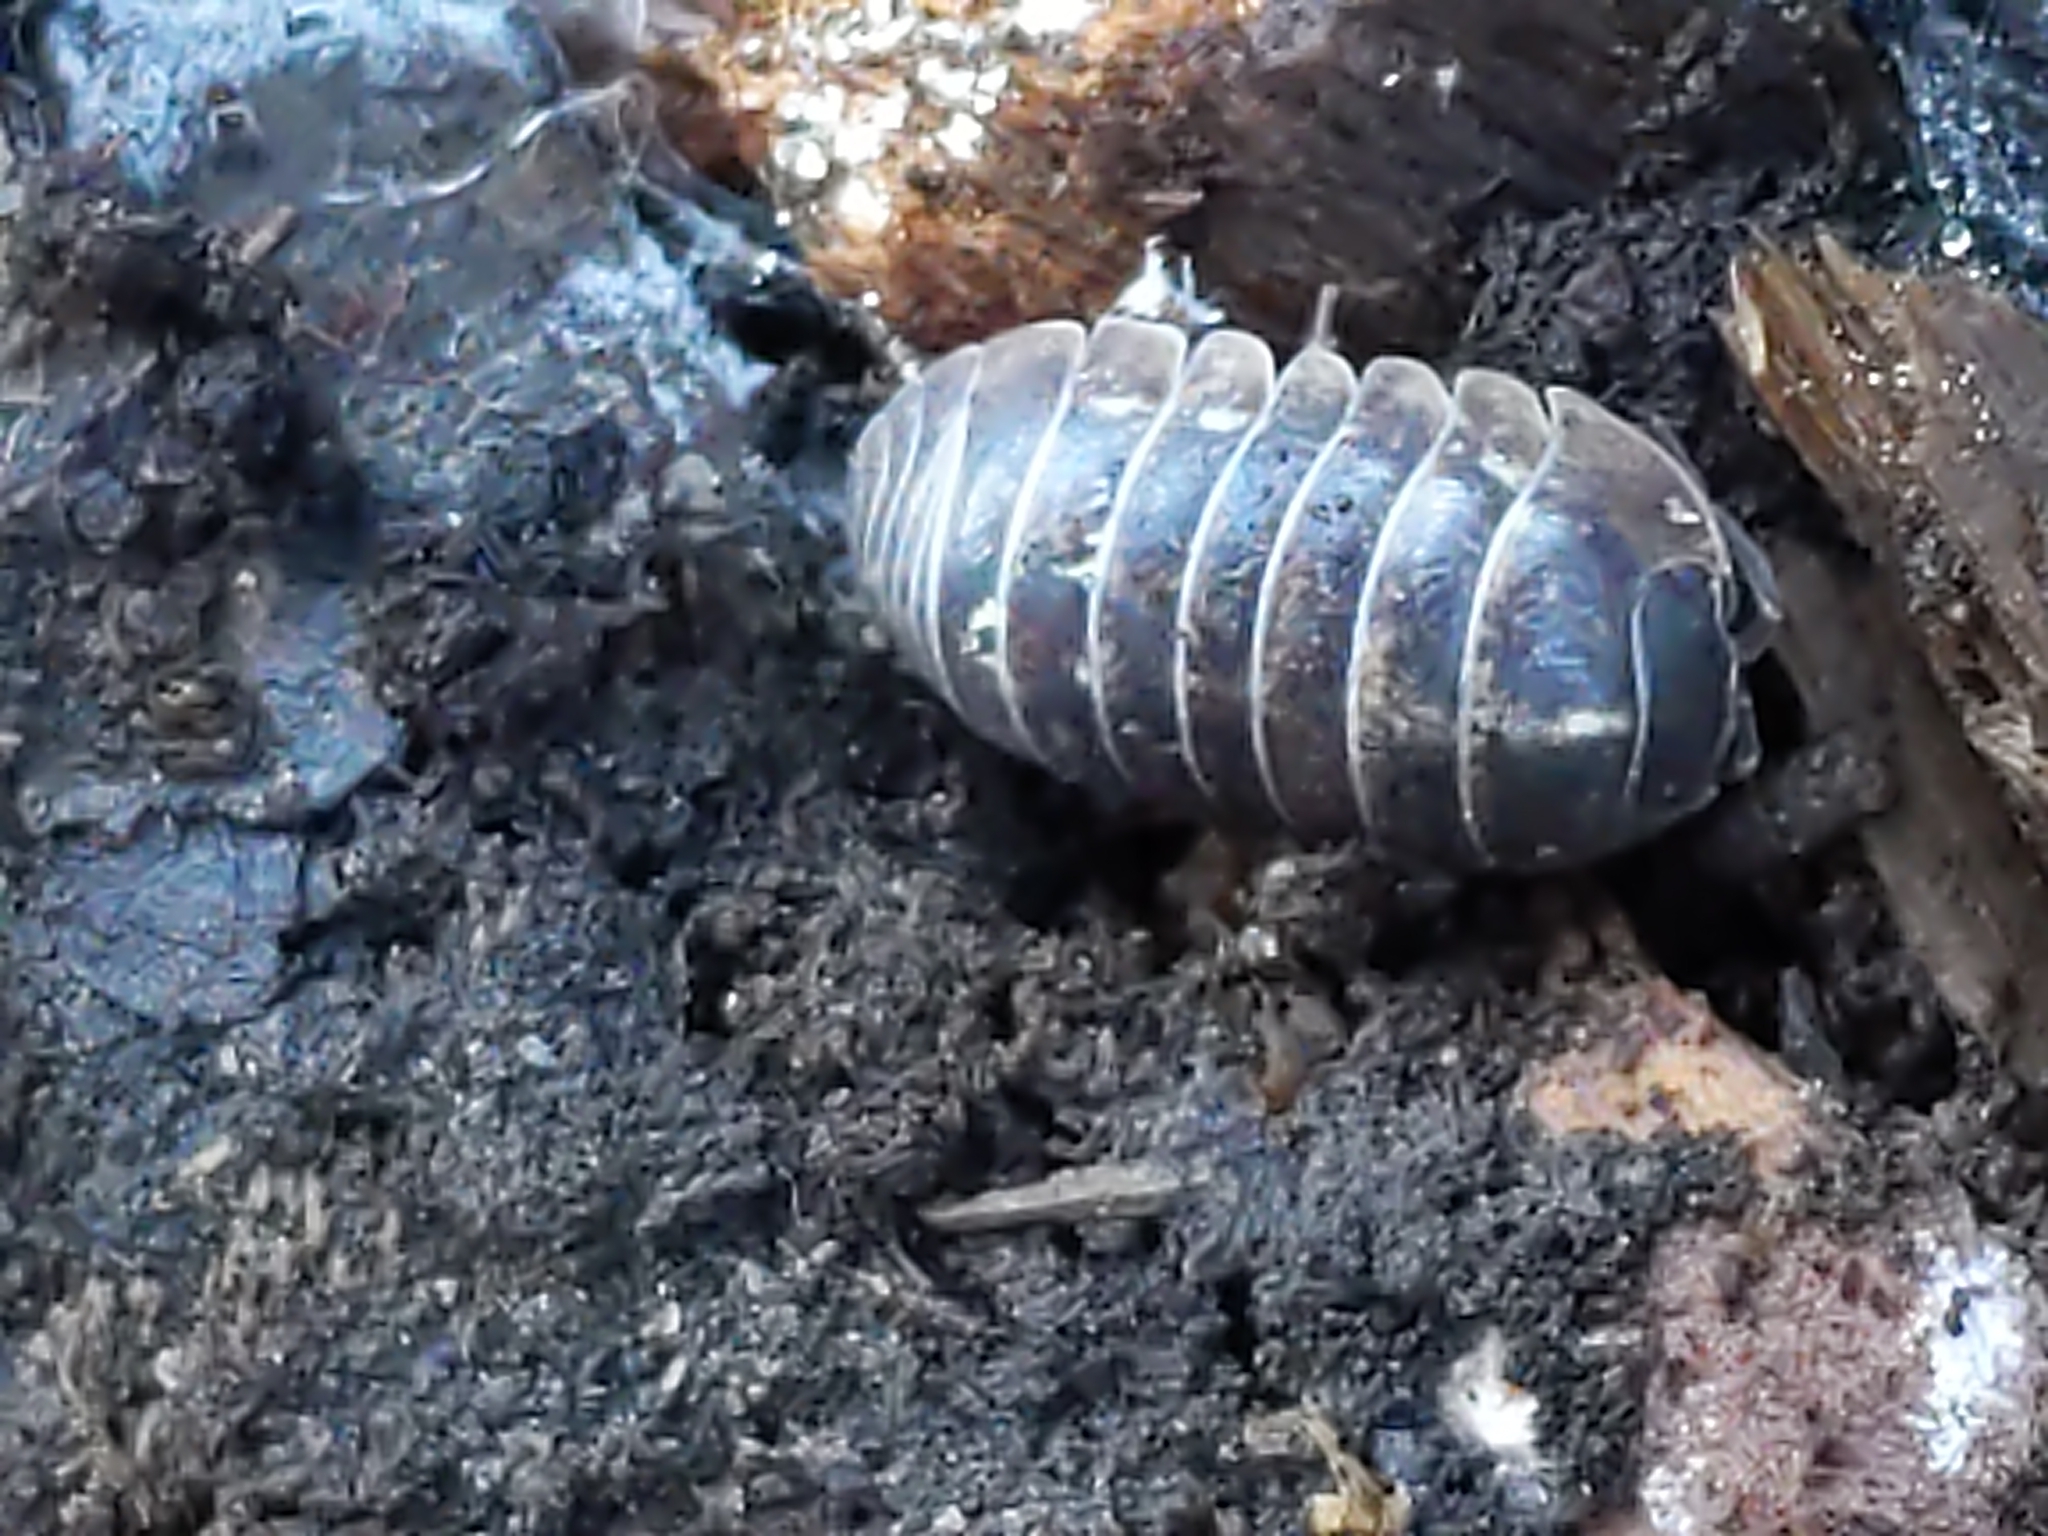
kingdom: Animalia
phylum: Arthropoda
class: Malacostraca
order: Isopoda
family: Armadillidiidae
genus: Armadillidium
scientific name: Armadillidium vulgare
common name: Common pill woodlouse
